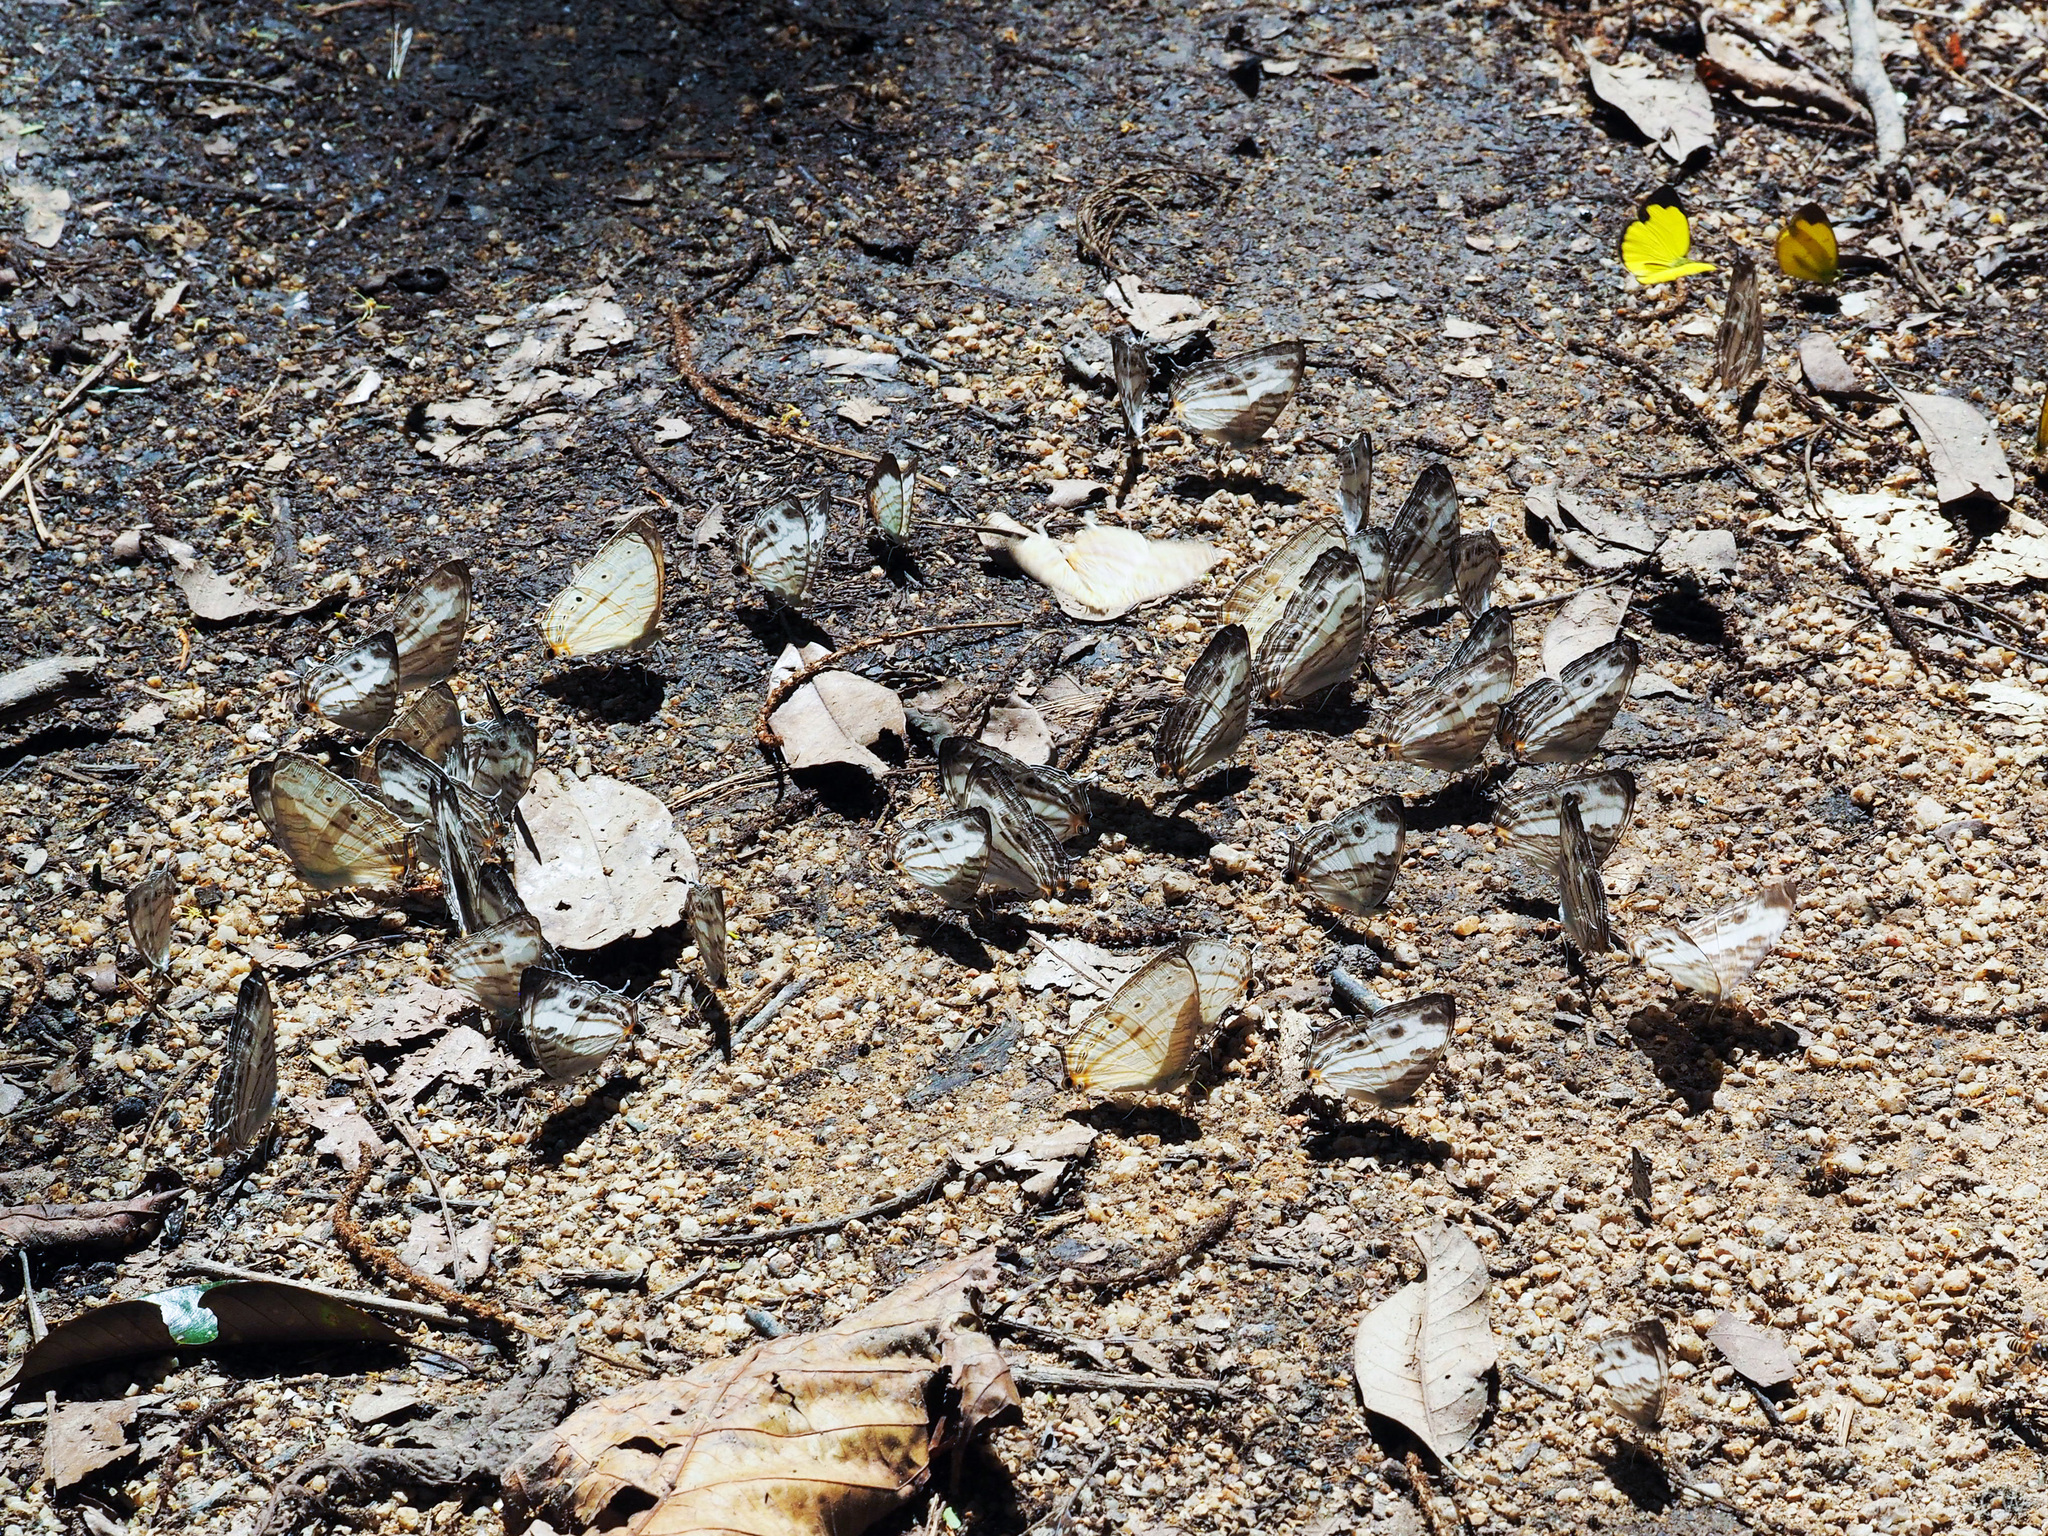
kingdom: Animalia
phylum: Arthropoda
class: Insecta
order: Lepidoptera
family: Nymphalidae
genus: Cyrestis
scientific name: Cyrestis cocles
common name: Marbled map
